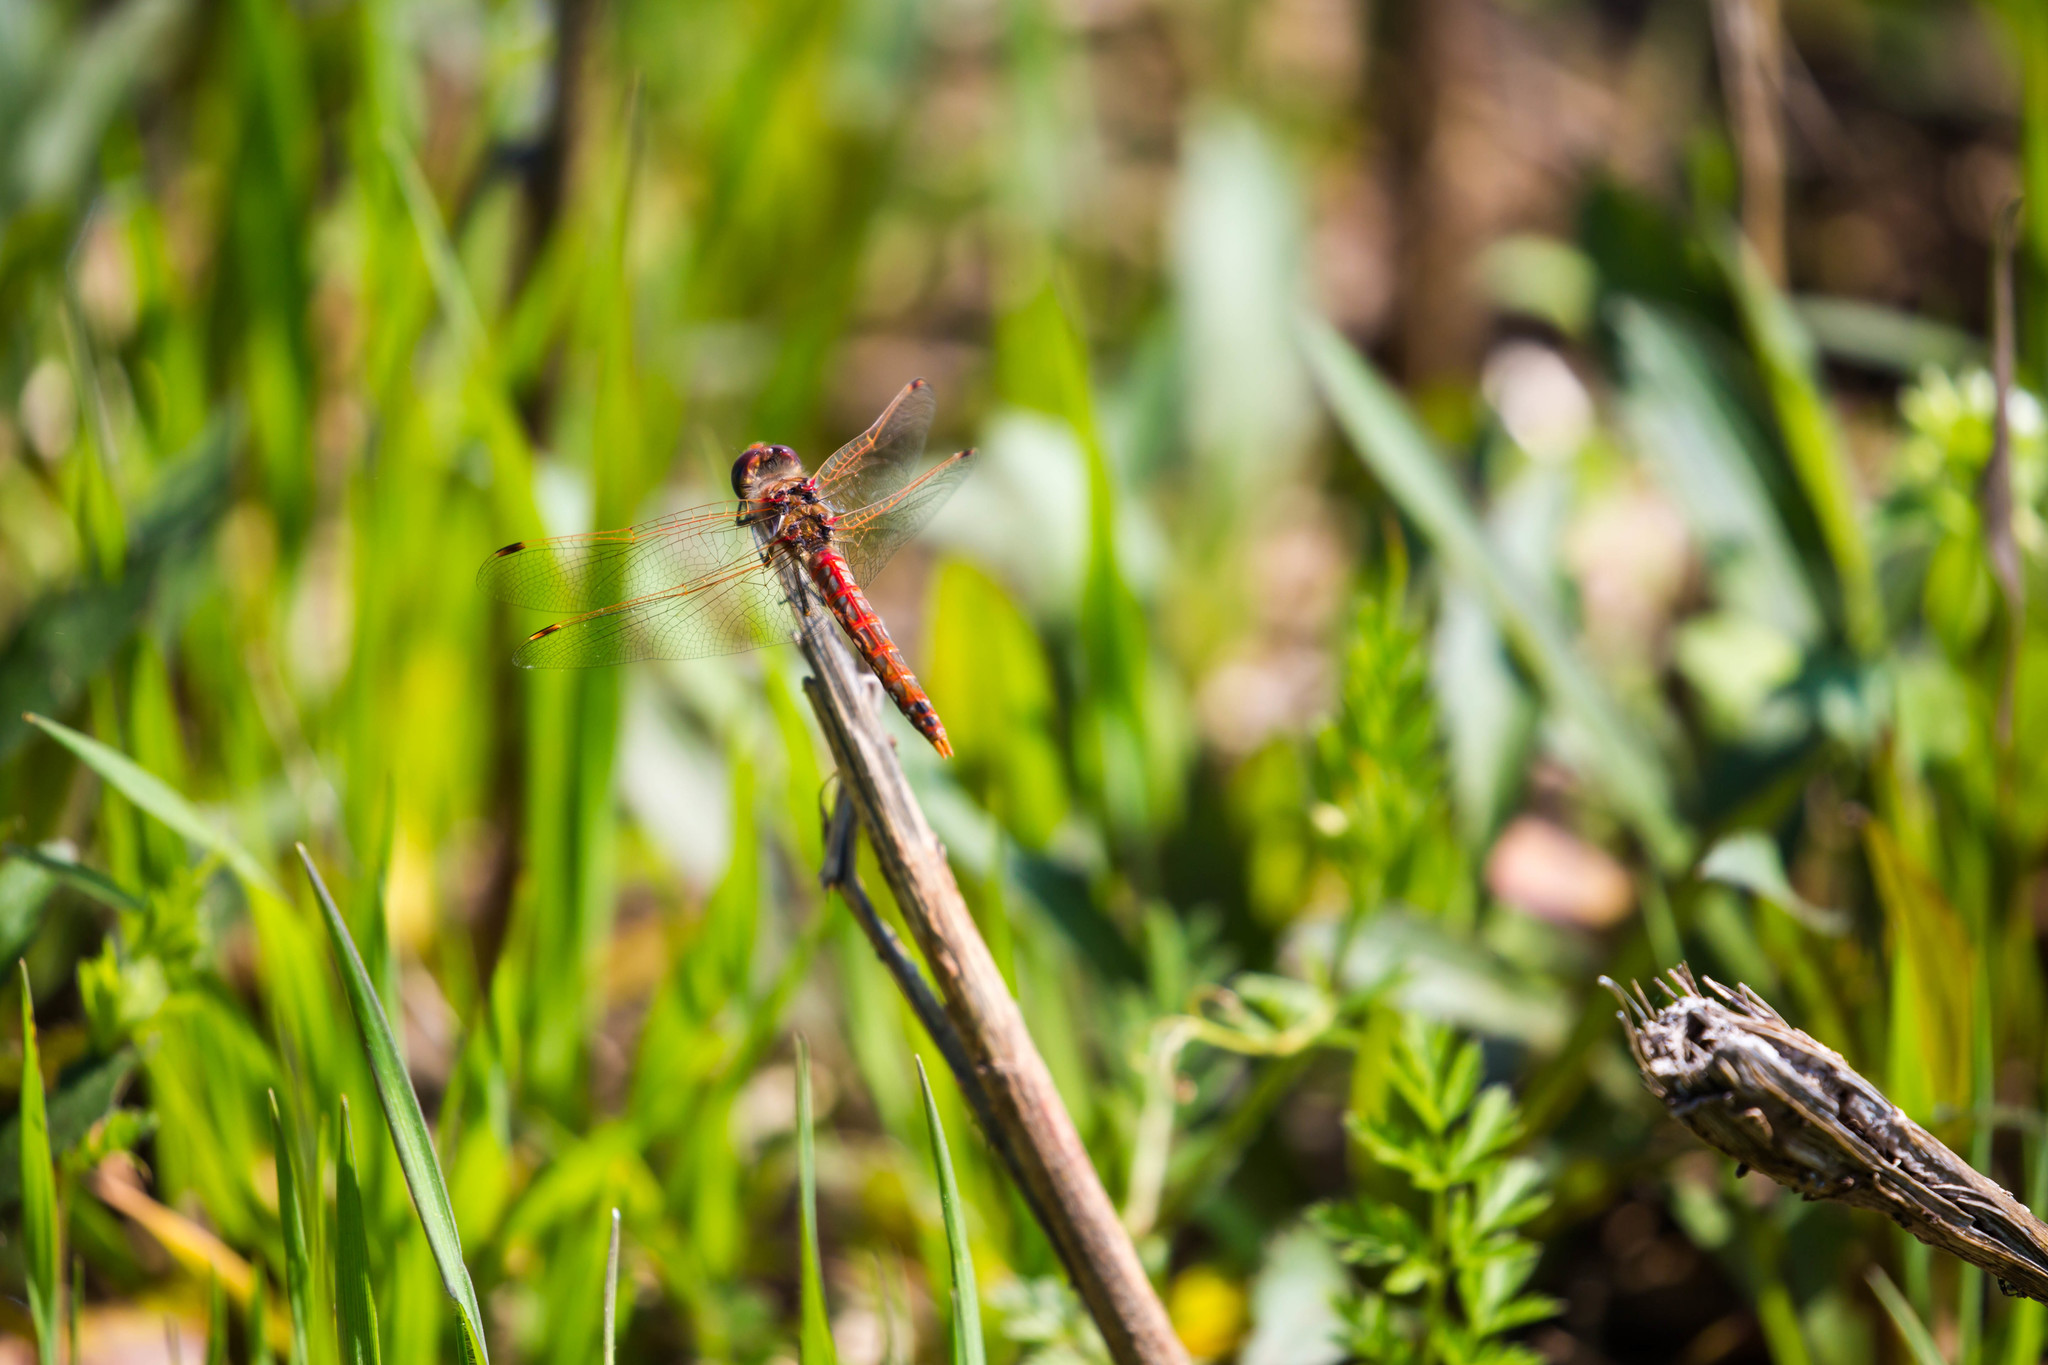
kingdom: Animalia
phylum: Arthropoda
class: Insecta
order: Odonata
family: Libellulidae
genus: Sympetrum
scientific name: Sympetrum corruptum
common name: Variegated meadowhawk
